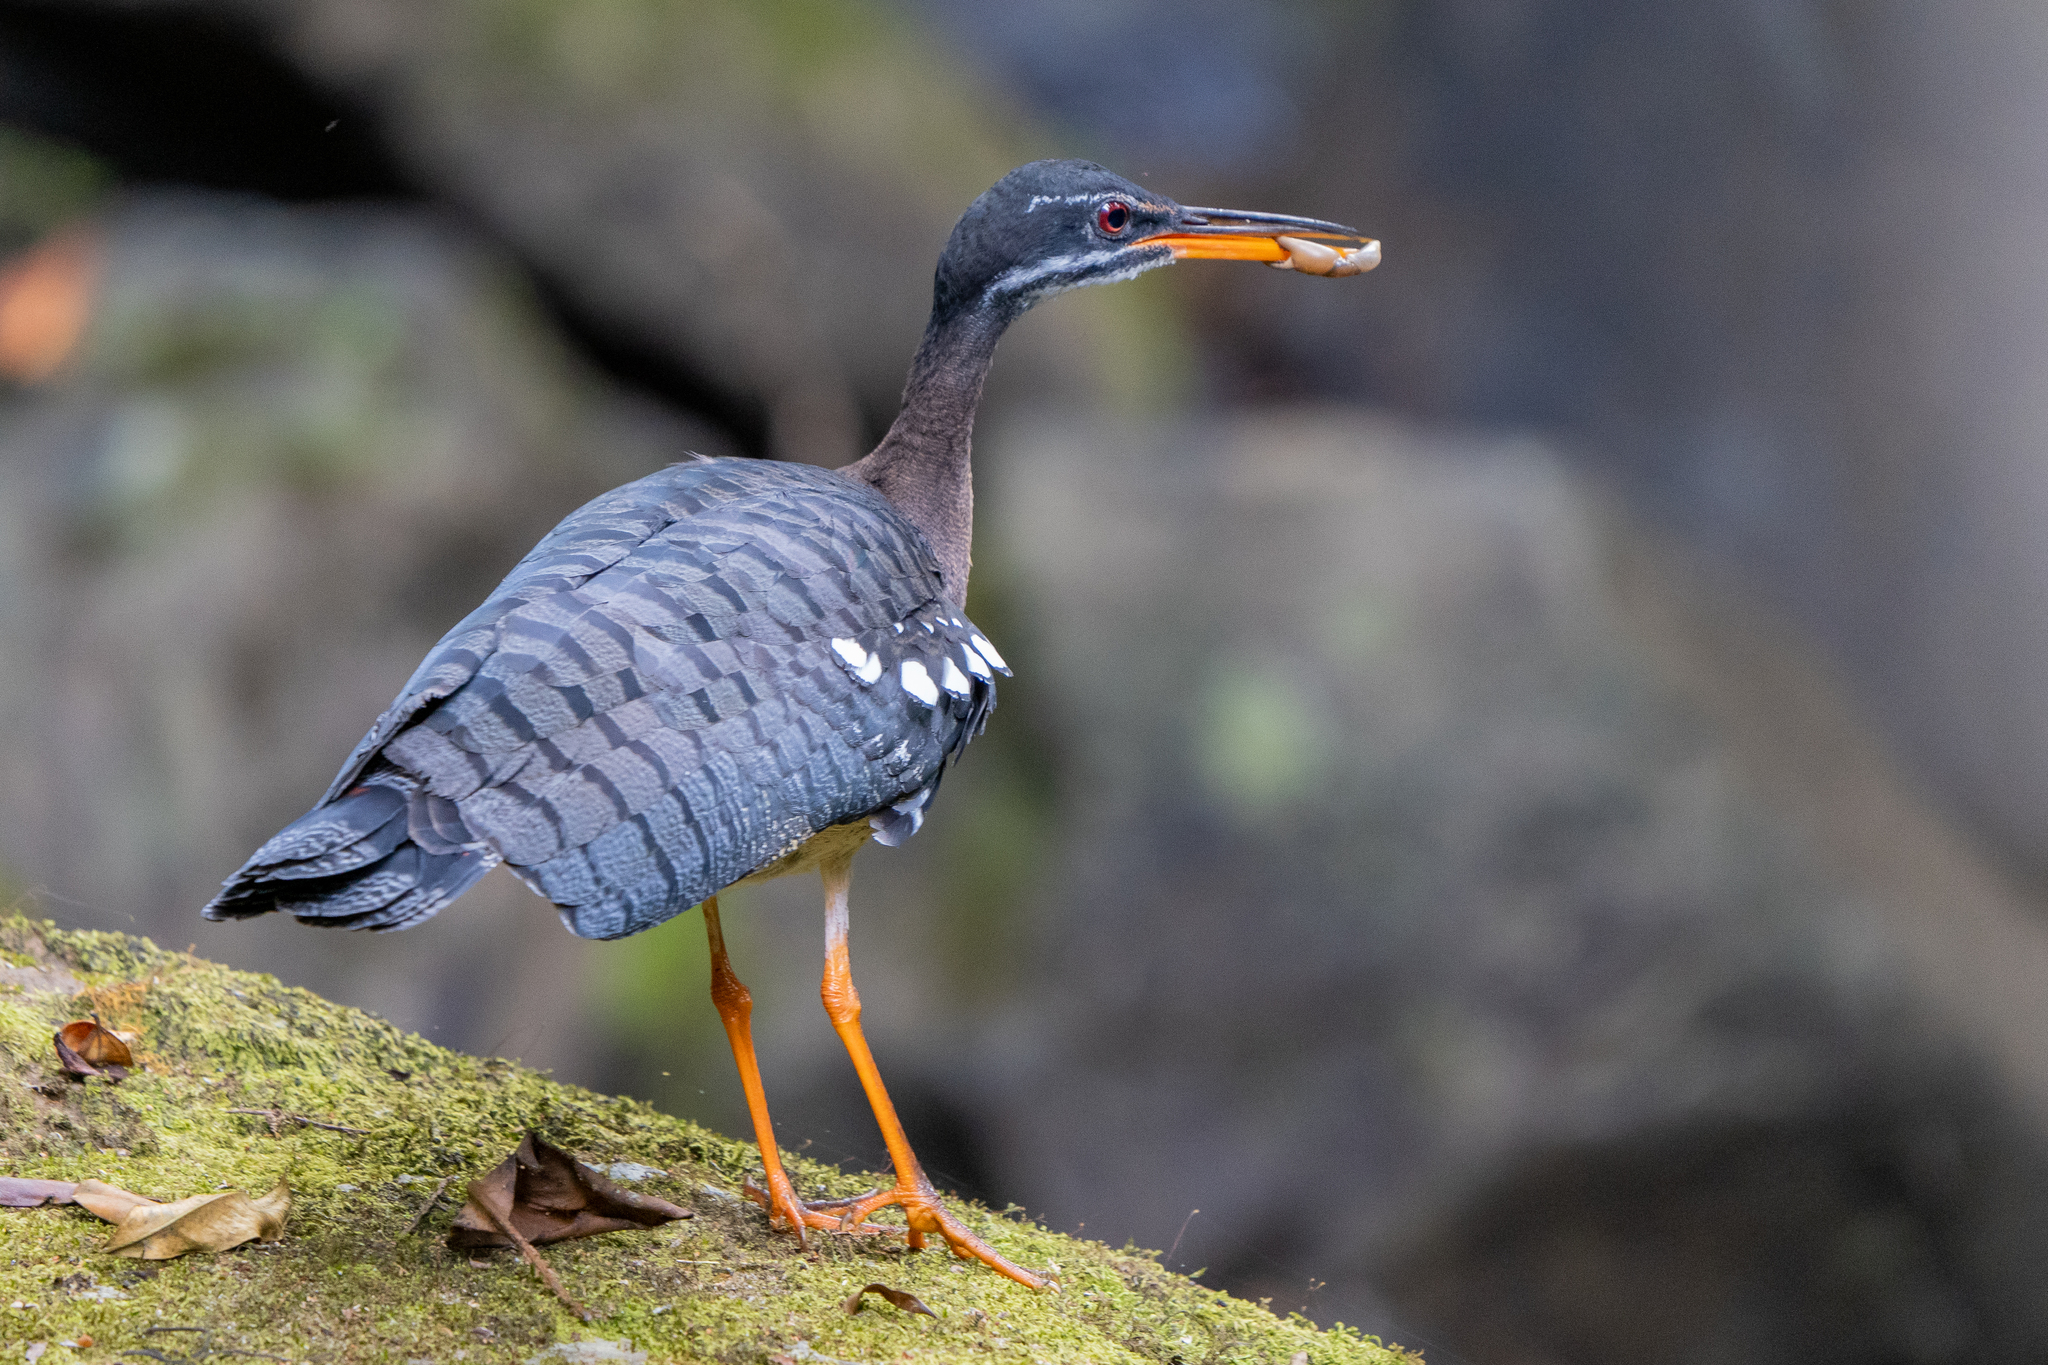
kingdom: Animalia
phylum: Chordata
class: Aves
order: Eurypygiformes
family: Eurypygidae
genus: Eurypyga
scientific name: Eurypyga helias
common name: Sunbittern
